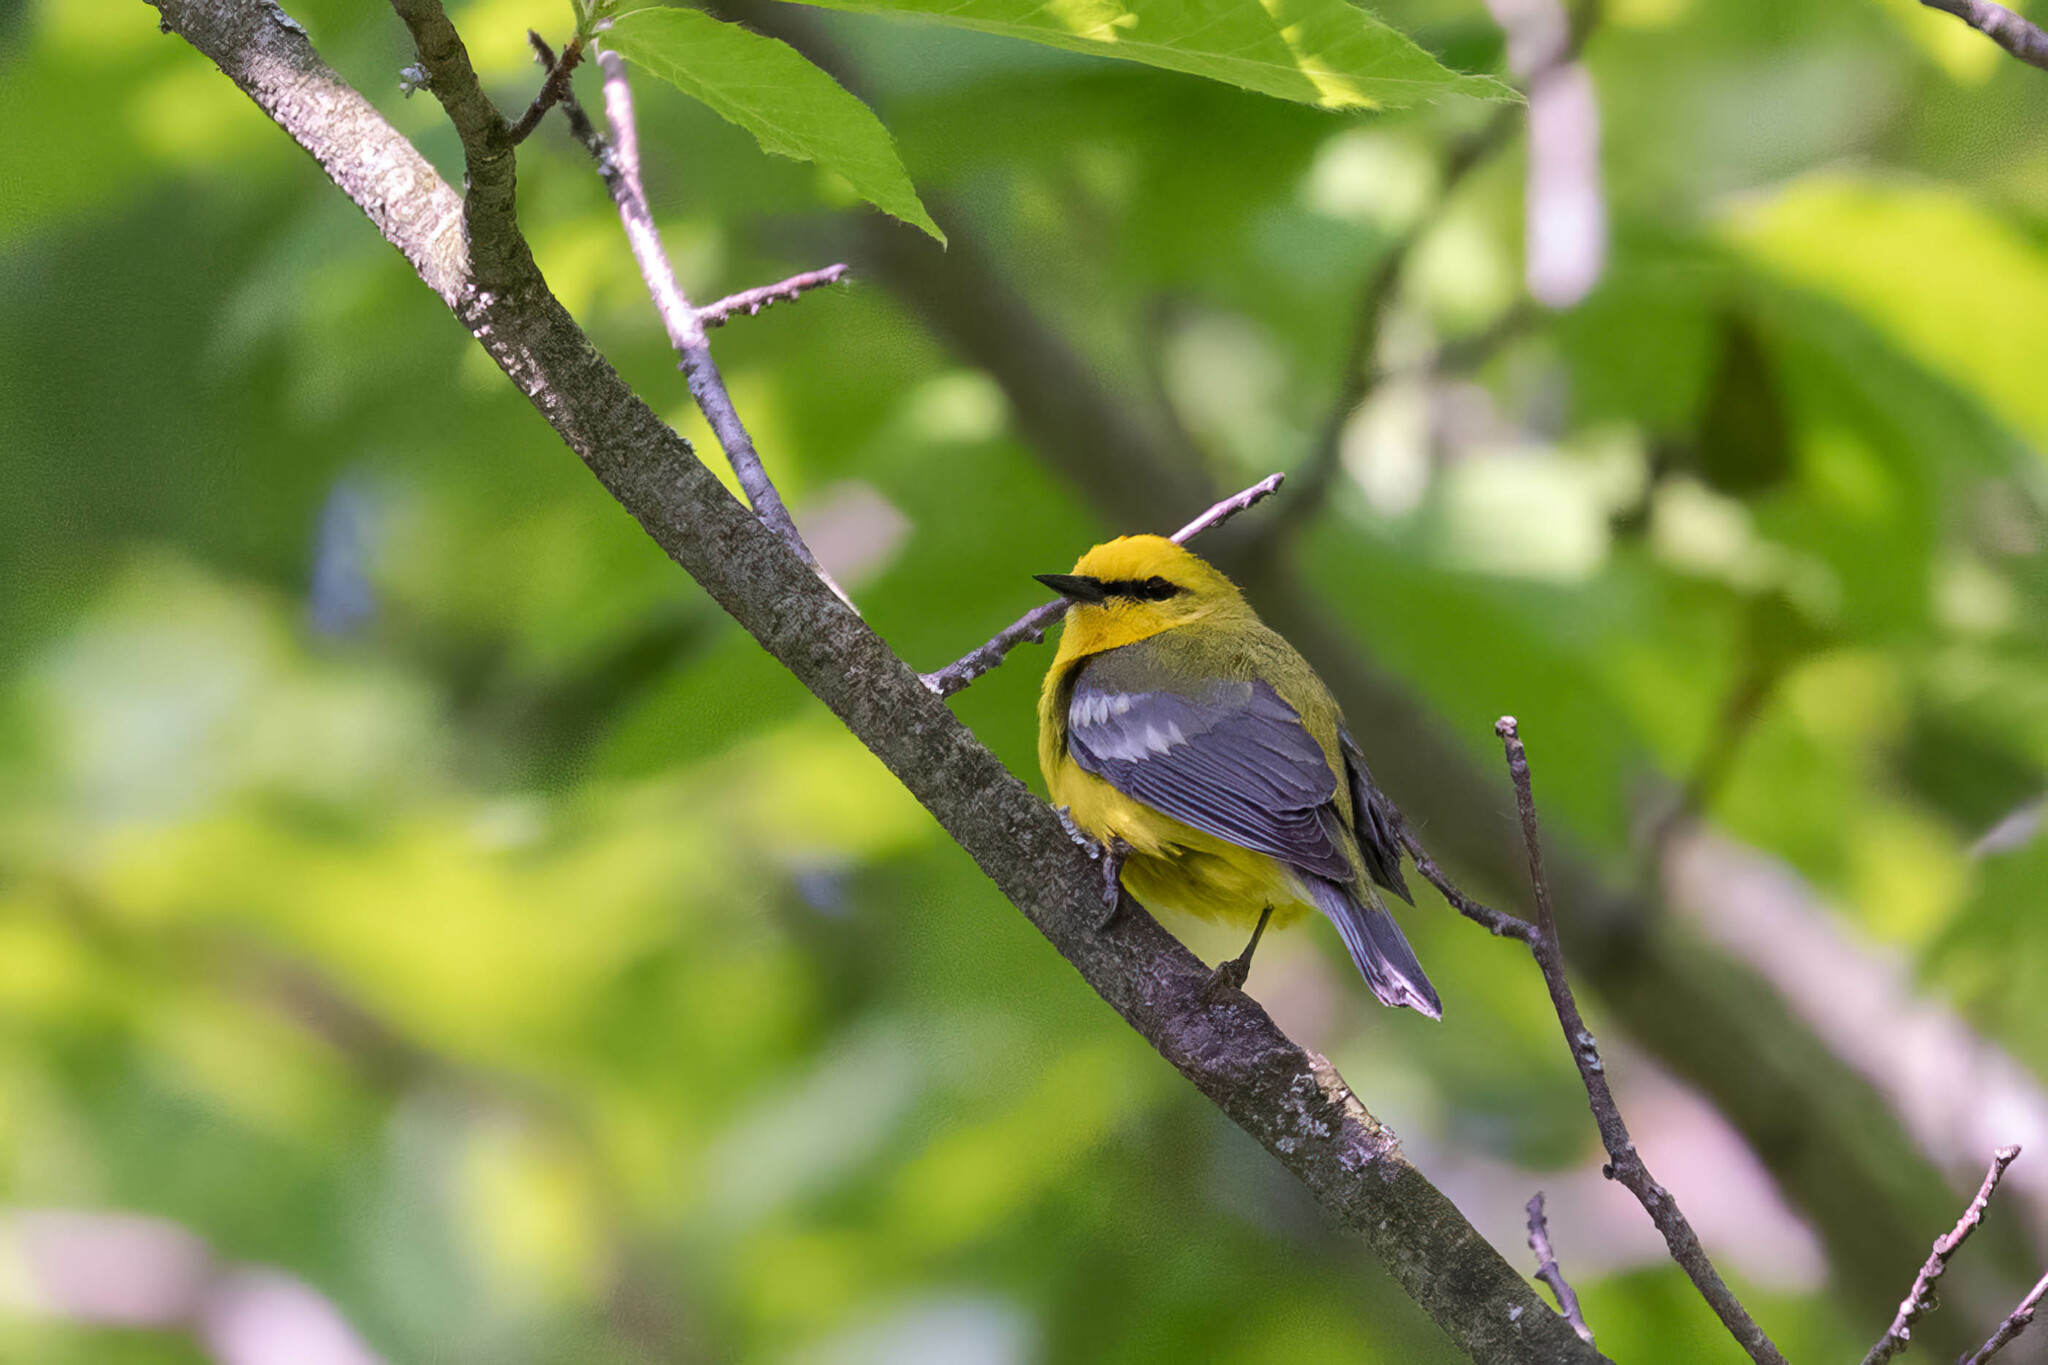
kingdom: Animalia
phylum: Chordata
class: Aves
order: Passeriformes
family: Parulidae
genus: Vermivora
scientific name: Vermivora cyanoptera
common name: Blue-winged warbler
